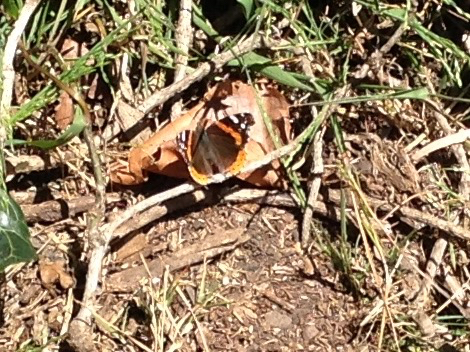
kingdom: Animalia
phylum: Arthropoda
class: Insecta
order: Lepidoptera
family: Nymphalidae
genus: Vanessa
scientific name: Vanessa atalanta
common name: Red admiral
